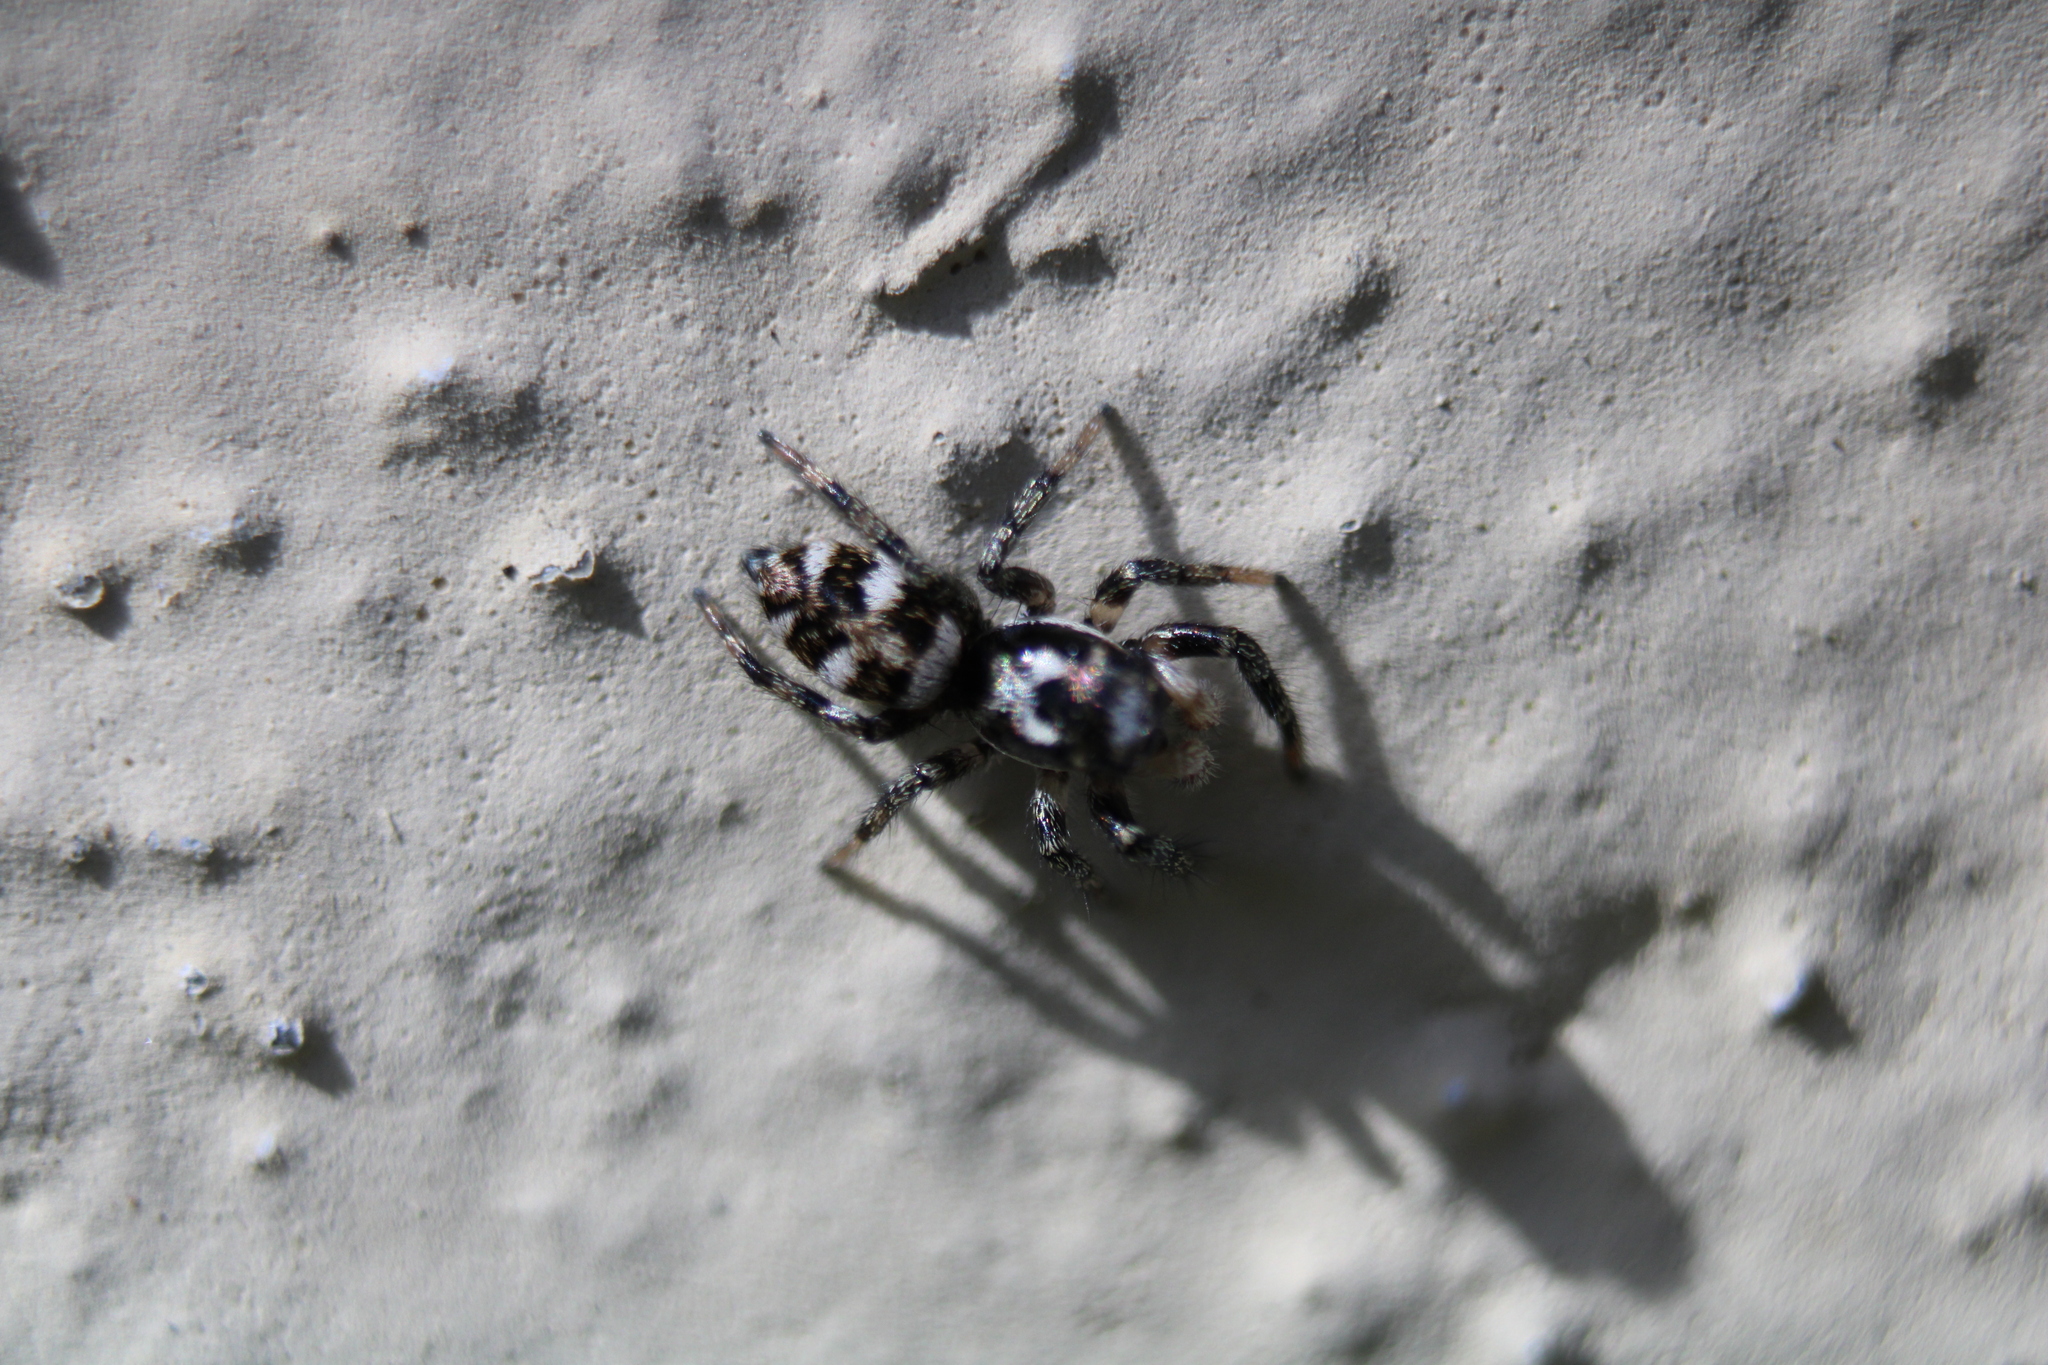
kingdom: Animalia
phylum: Arthropoda
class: Arachnida
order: Araneae
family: Salticidae
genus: Salticus
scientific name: Salticus scenicus
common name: Zebra jumper
